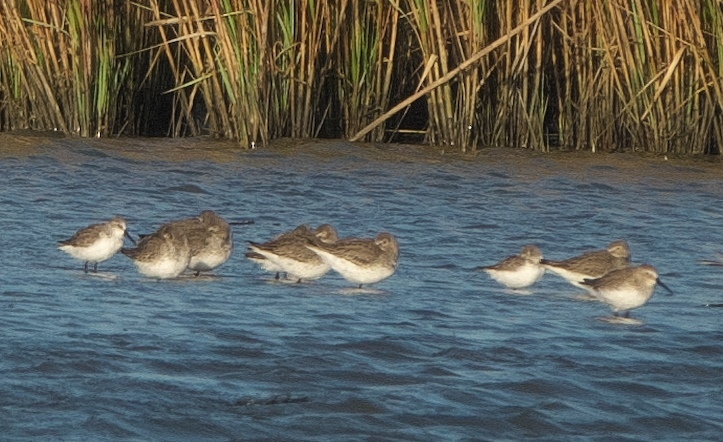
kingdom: Animalia
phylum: Chordata
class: Aves
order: Charadriiformes
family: Scolopacidae
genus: Calidris
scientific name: Calidris alpina
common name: Dunlin
